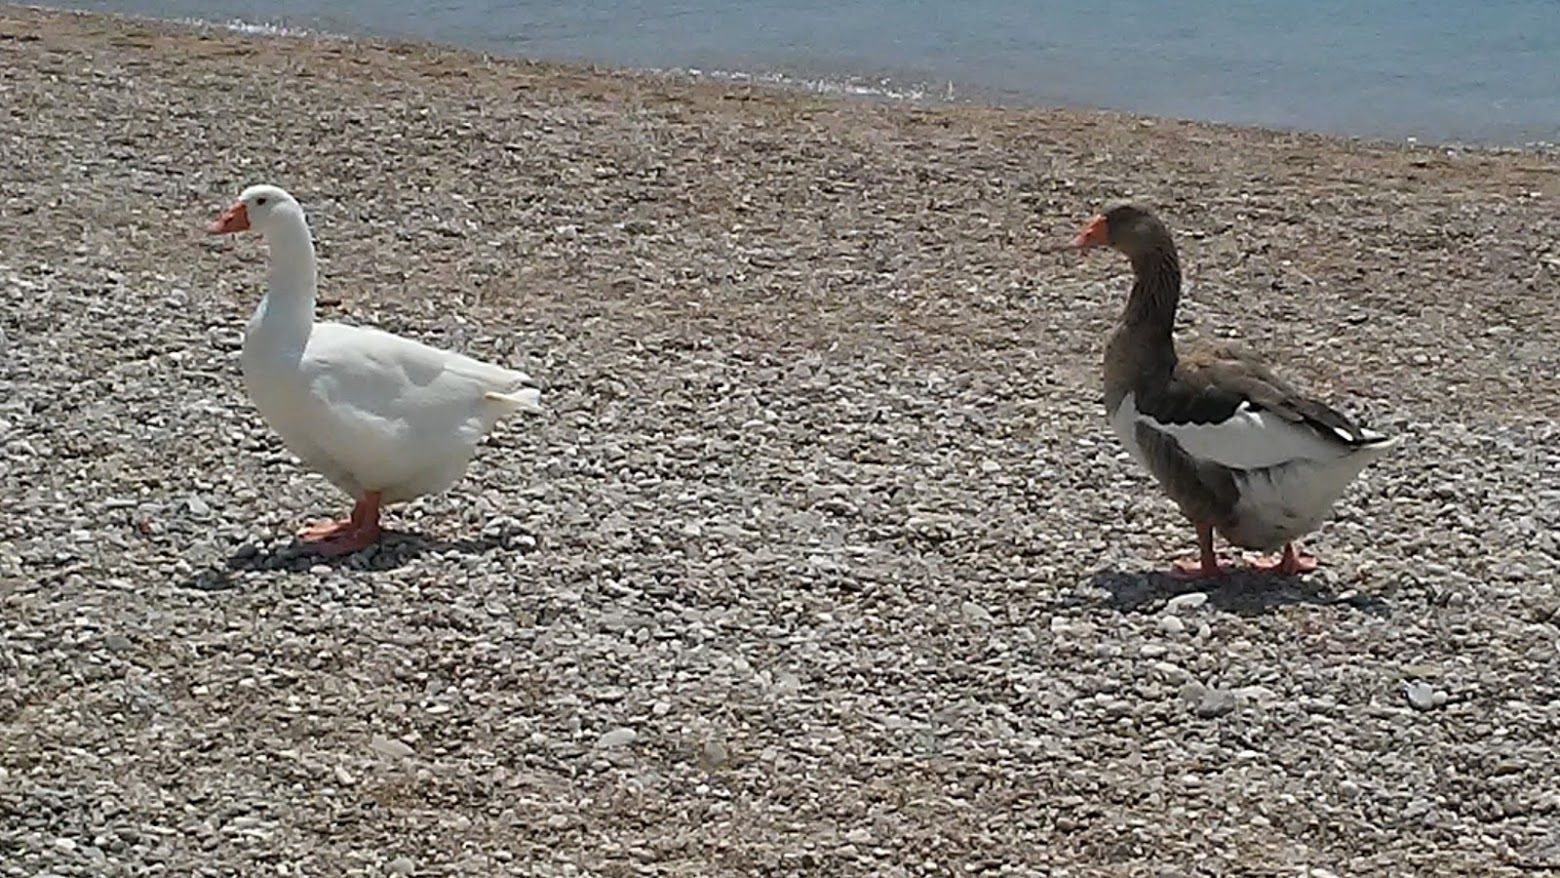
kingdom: Animalia
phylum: Chordata
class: Aves
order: Anseriformes
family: Anatidae
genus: Anser
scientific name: Anser anser
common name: Greylag goose
